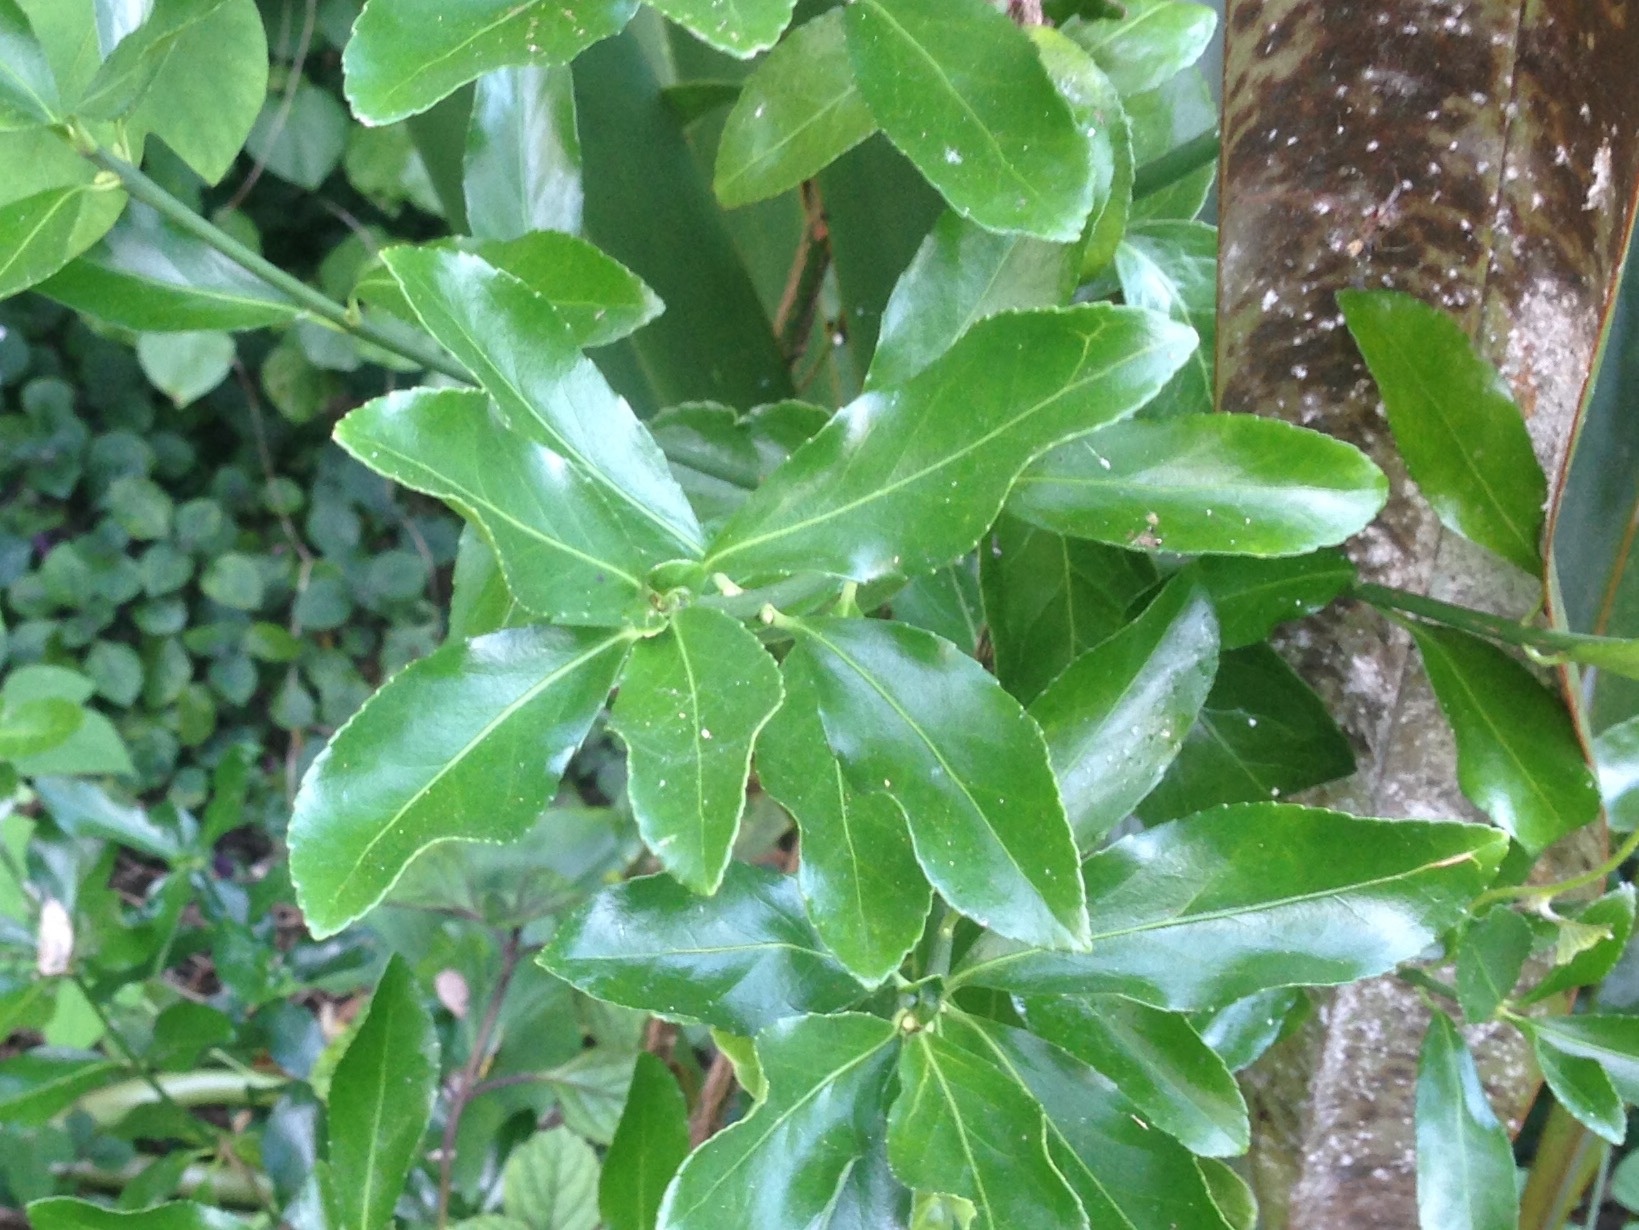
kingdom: Plantae
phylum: Tracheophyta
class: Magnoliopsida
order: Celastrales
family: Celastraceae
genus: Euonymus
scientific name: Euonymus japonicus
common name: Japanese spindletree
